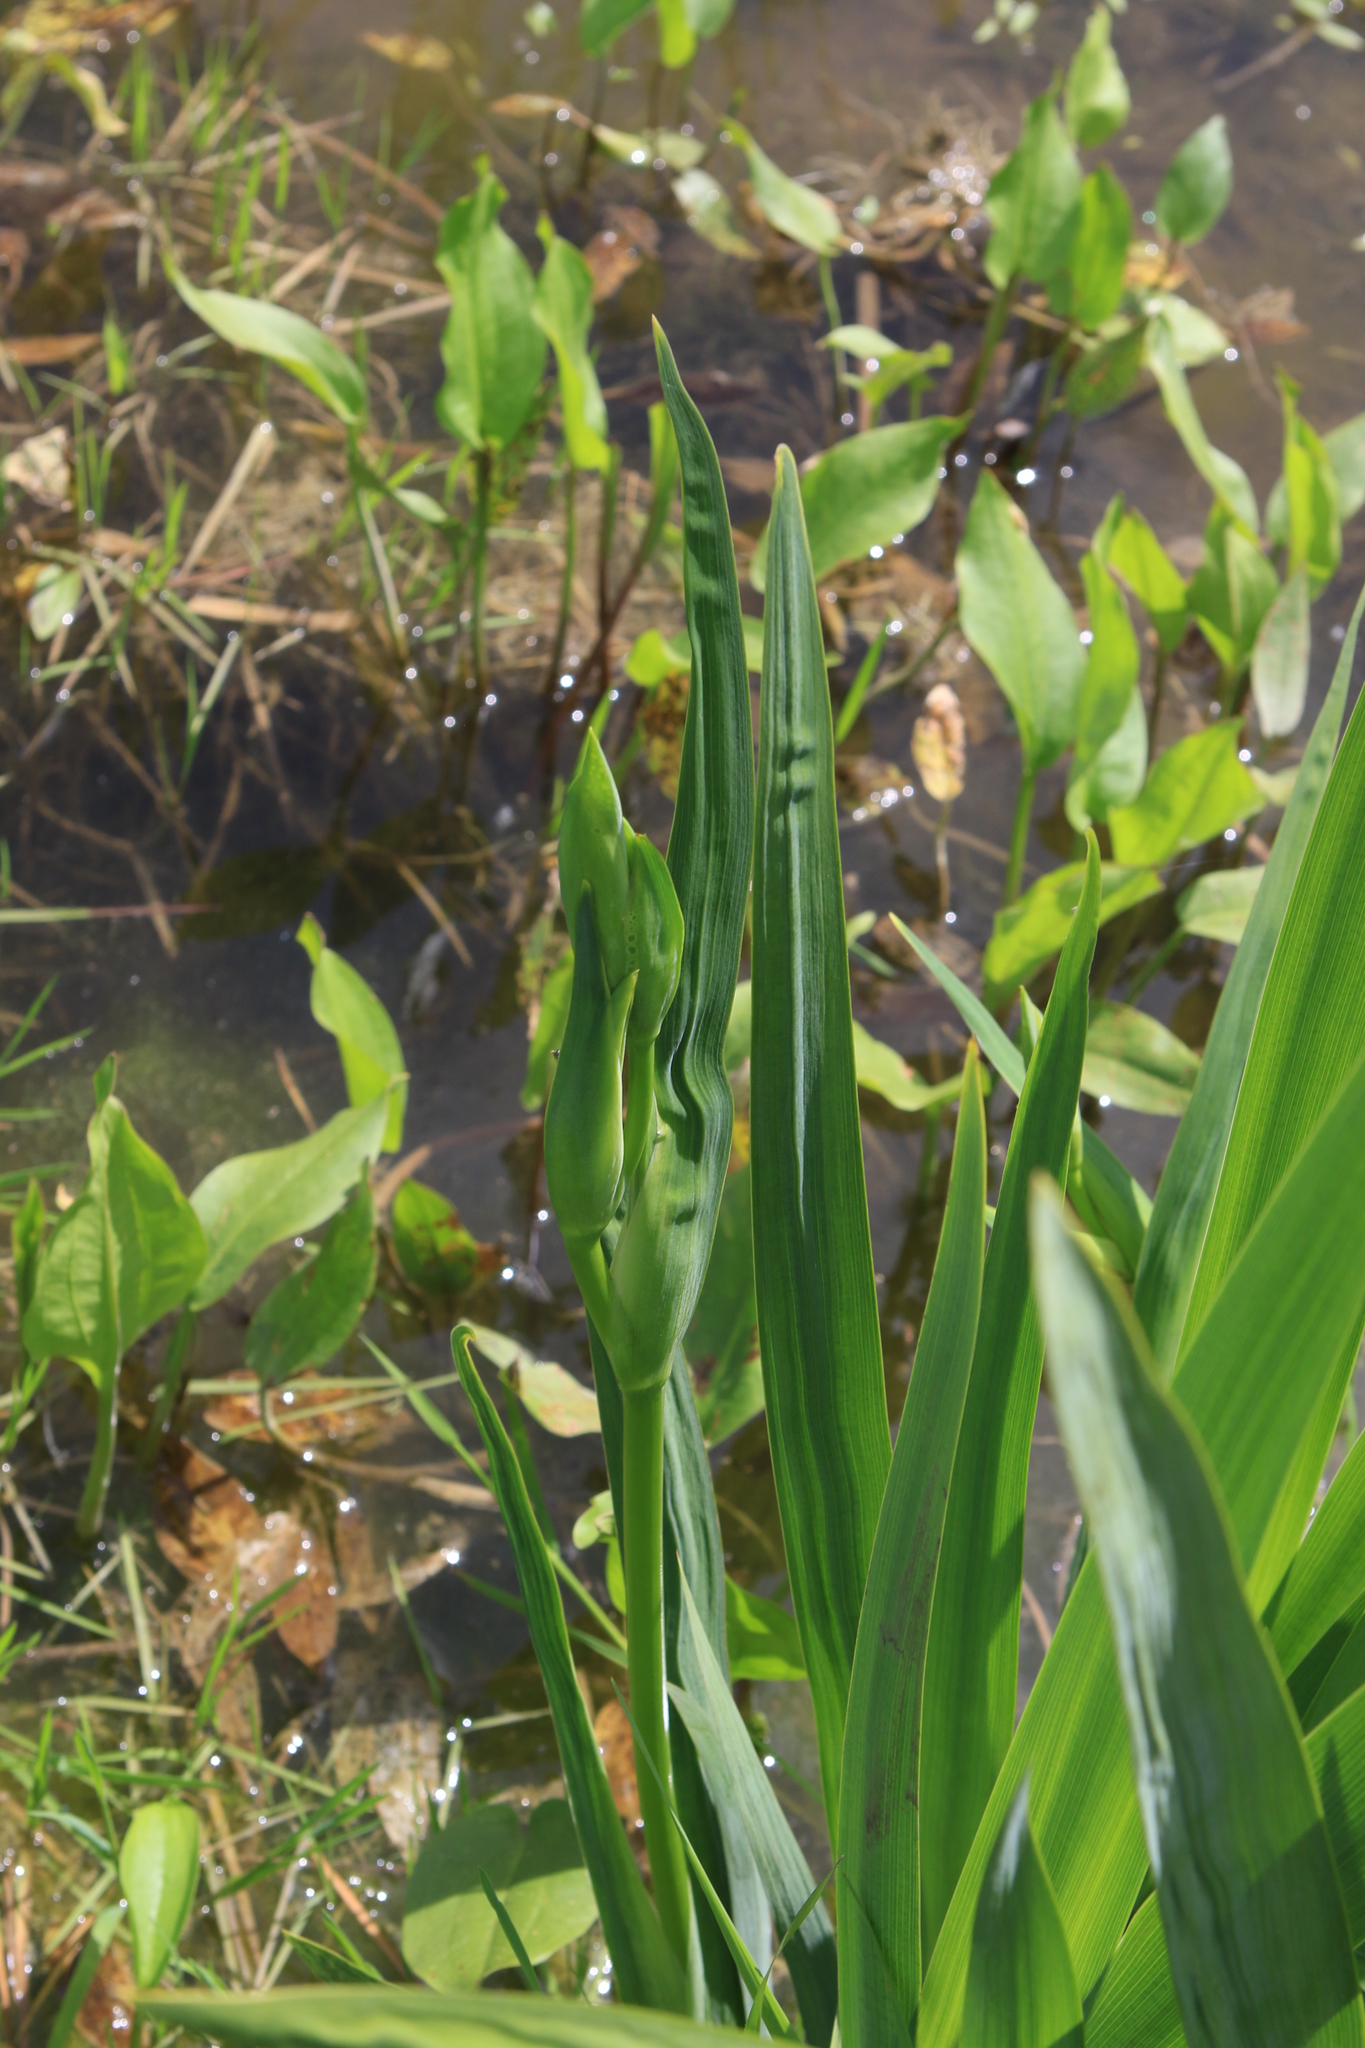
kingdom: Plantae
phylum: Tracheophyta
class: Liliopsida
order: Asparagales
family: Iridaceae
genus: Iris
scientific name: Iris pseudacorus
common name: Yellow flag
